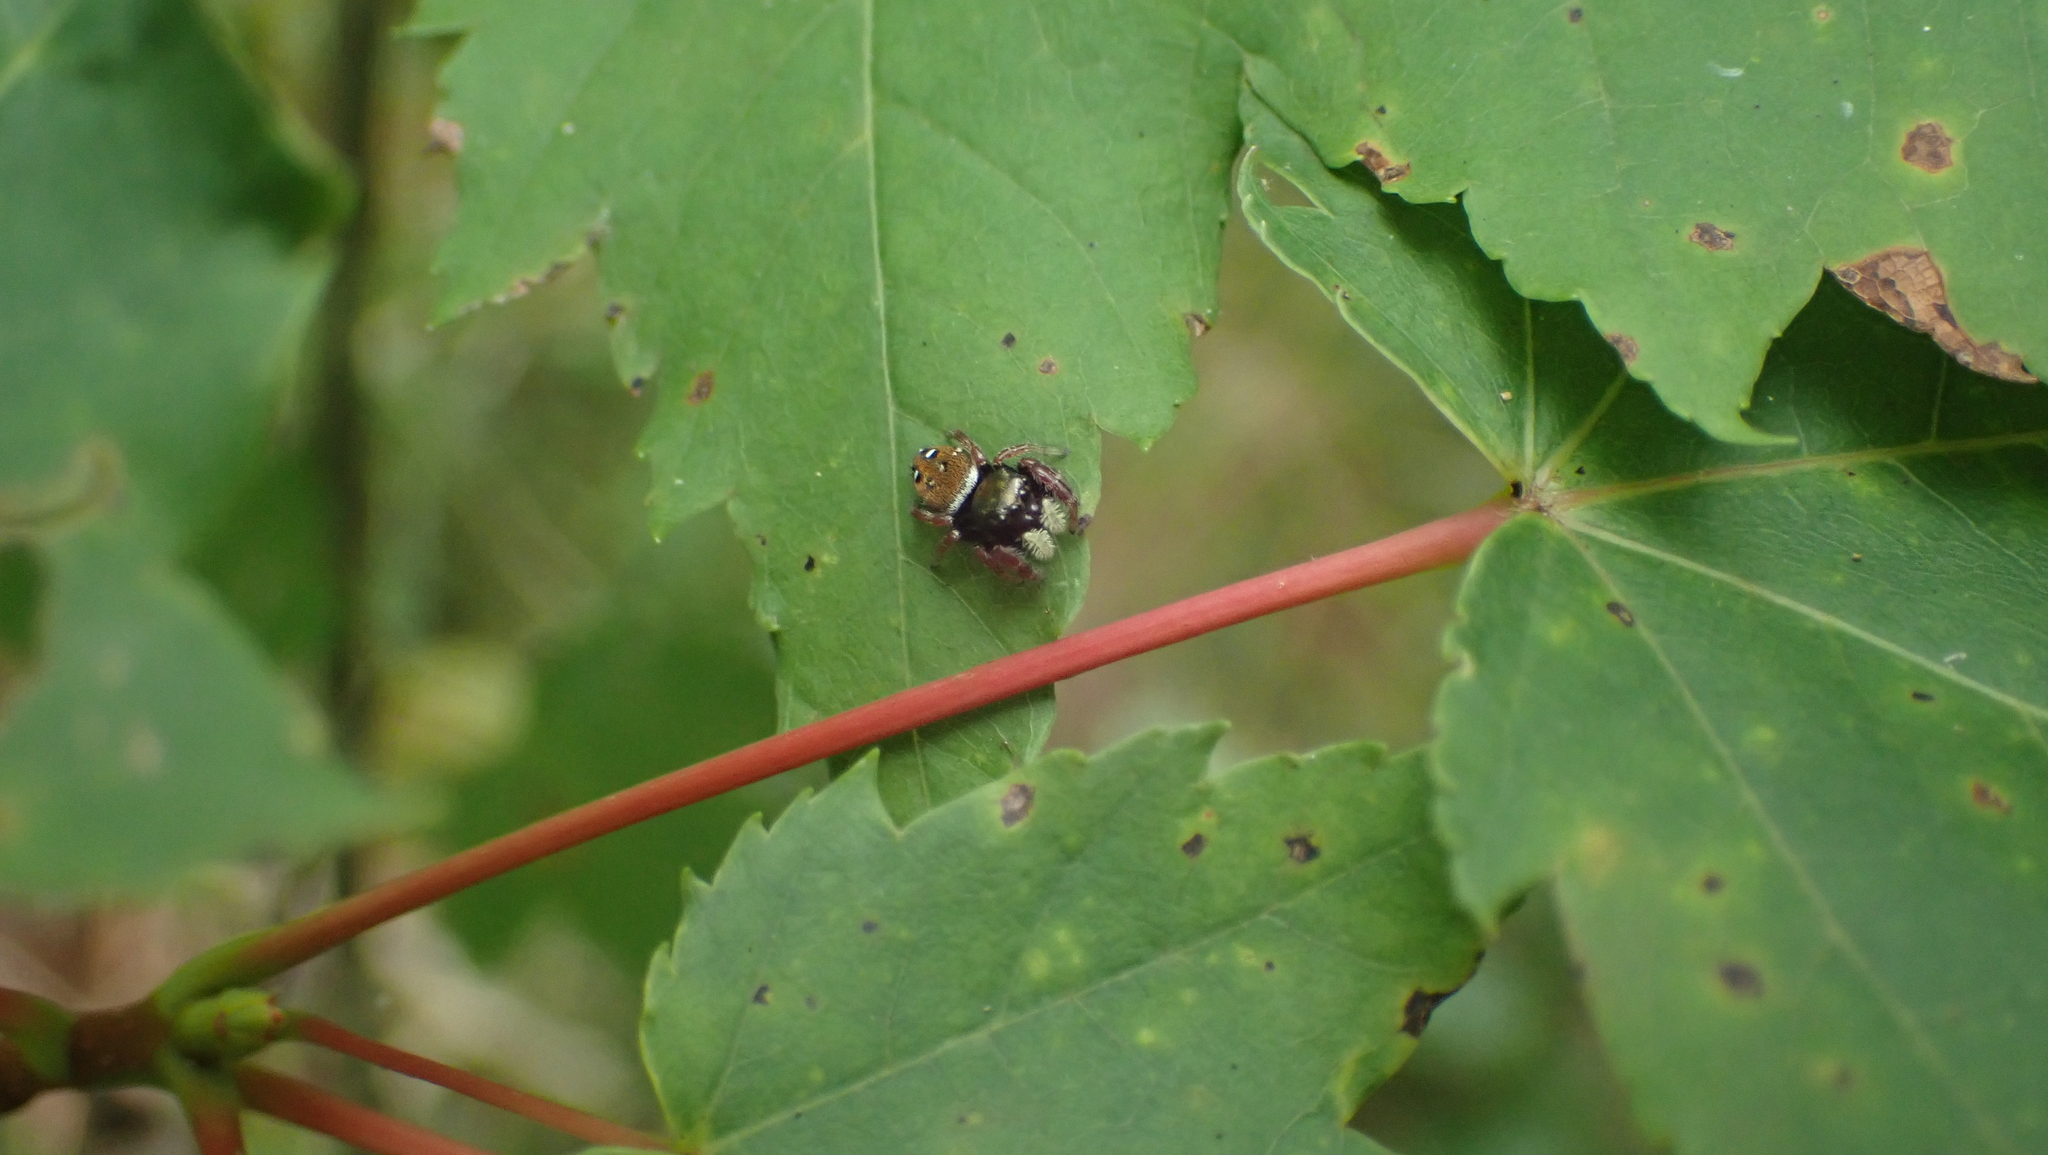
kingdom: Animalia
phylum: Arthropoda
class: Arachnida
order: Araneae
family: Salticidae
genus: Phidippus
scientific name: Phidippus whitmani
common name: Whitman's jumping spider
